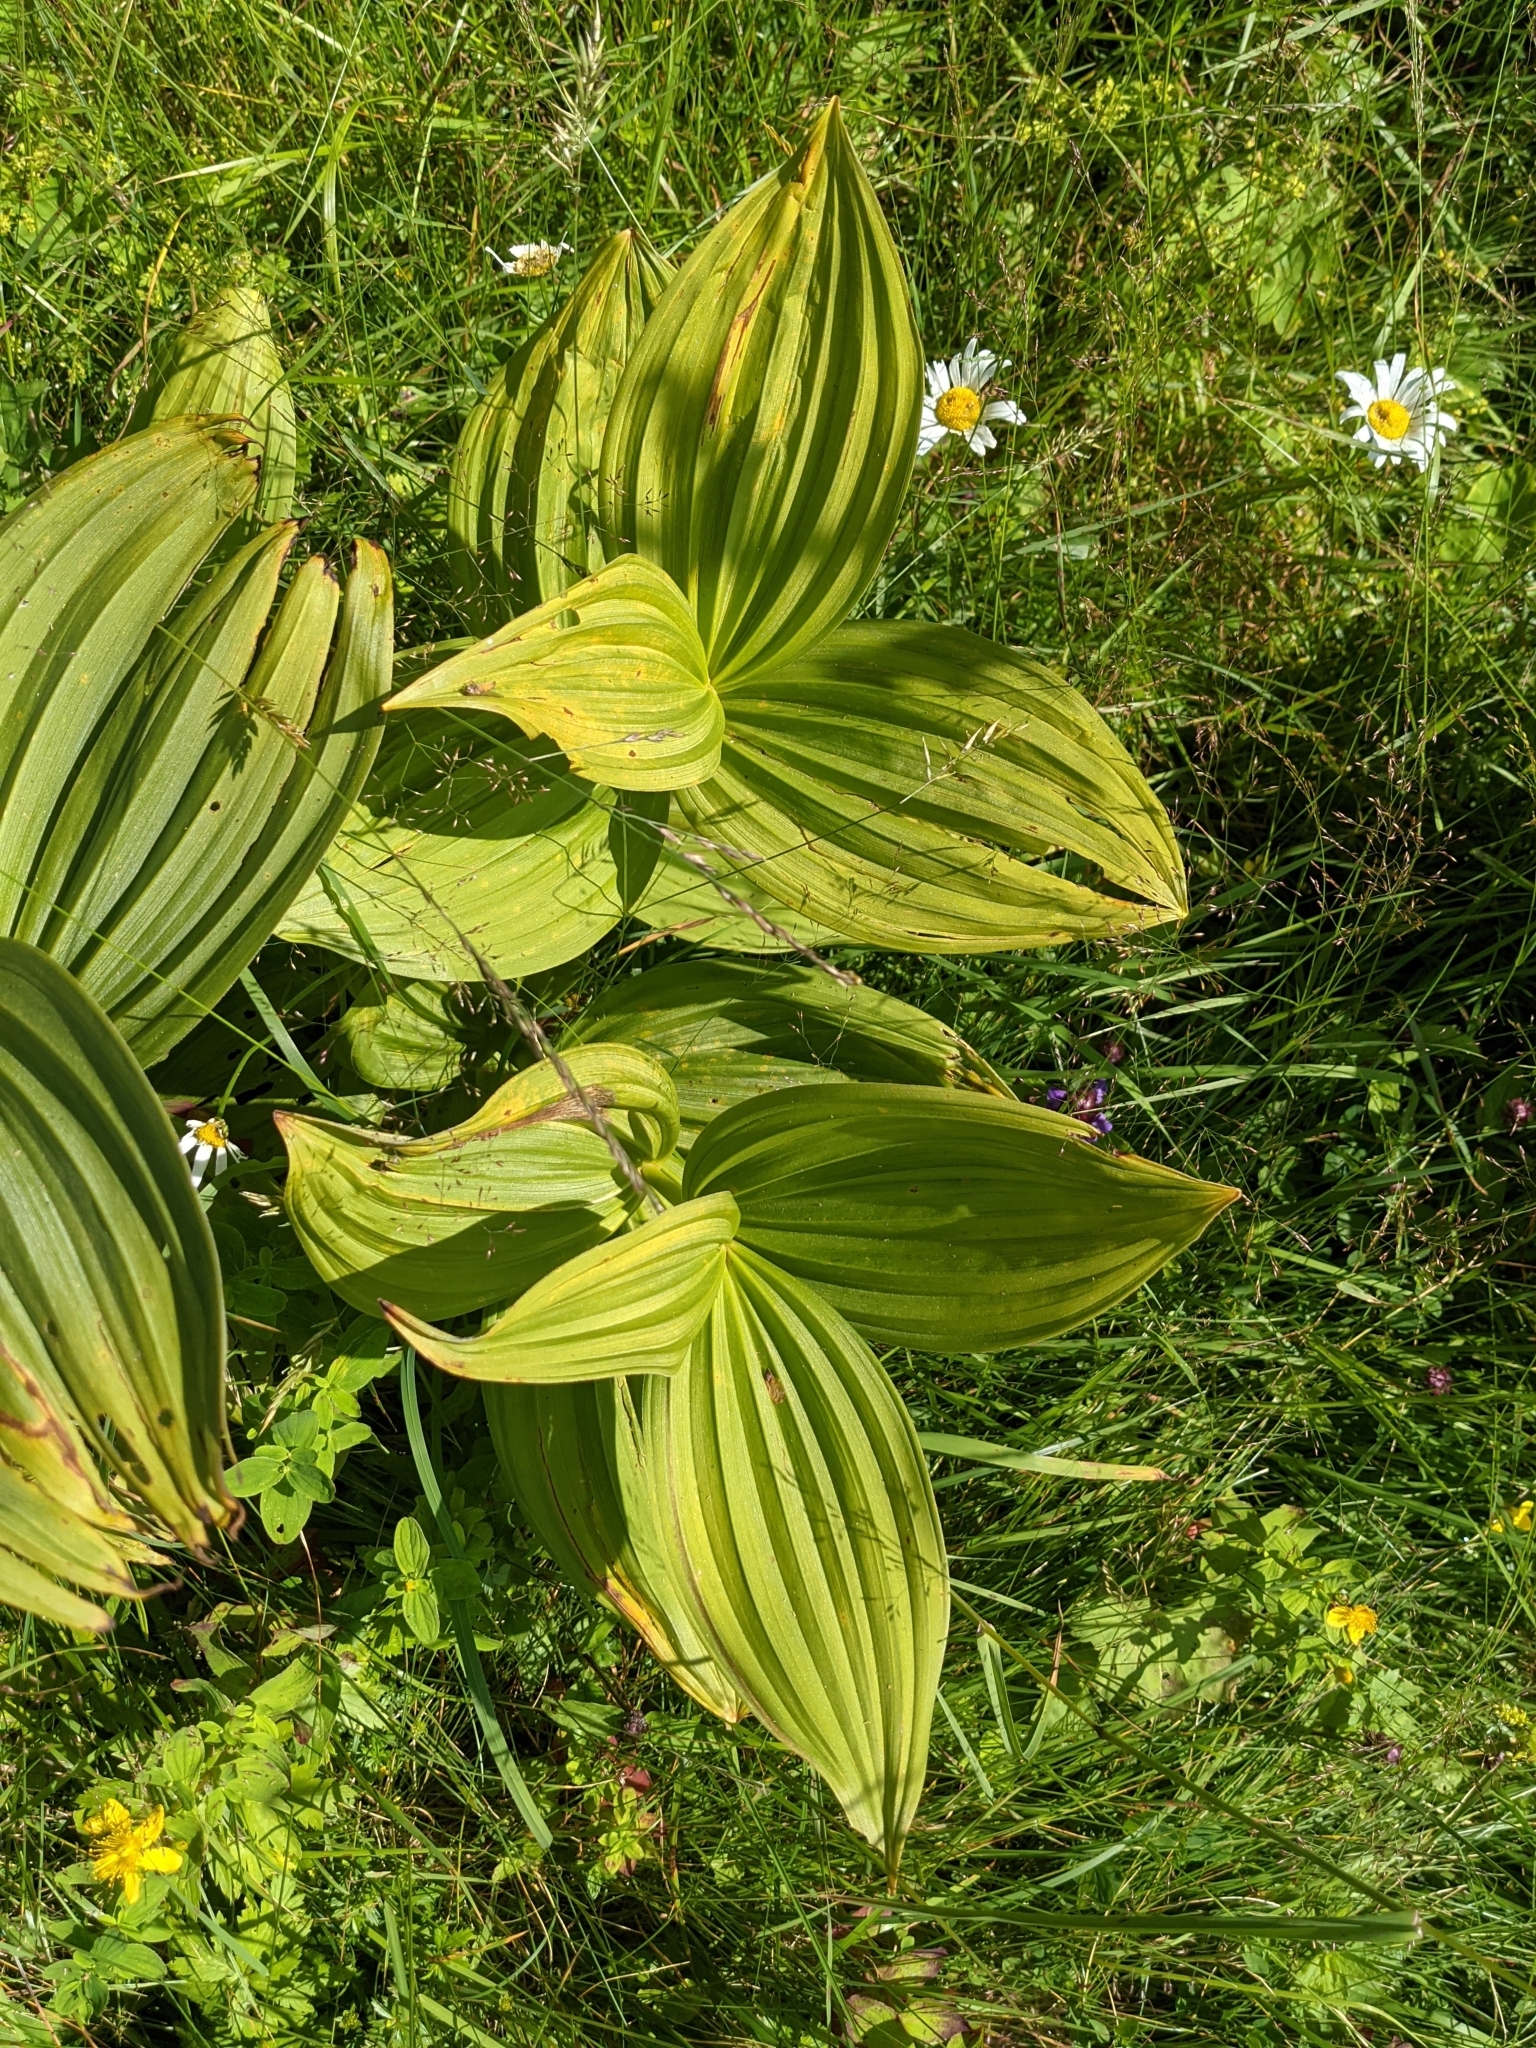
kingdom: Plantae
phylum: Tracheophyta
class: Liliopsida
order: Liliales
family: Melanthiaceae
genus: Veratrum
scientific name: Veratrum album
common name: White veratrum
